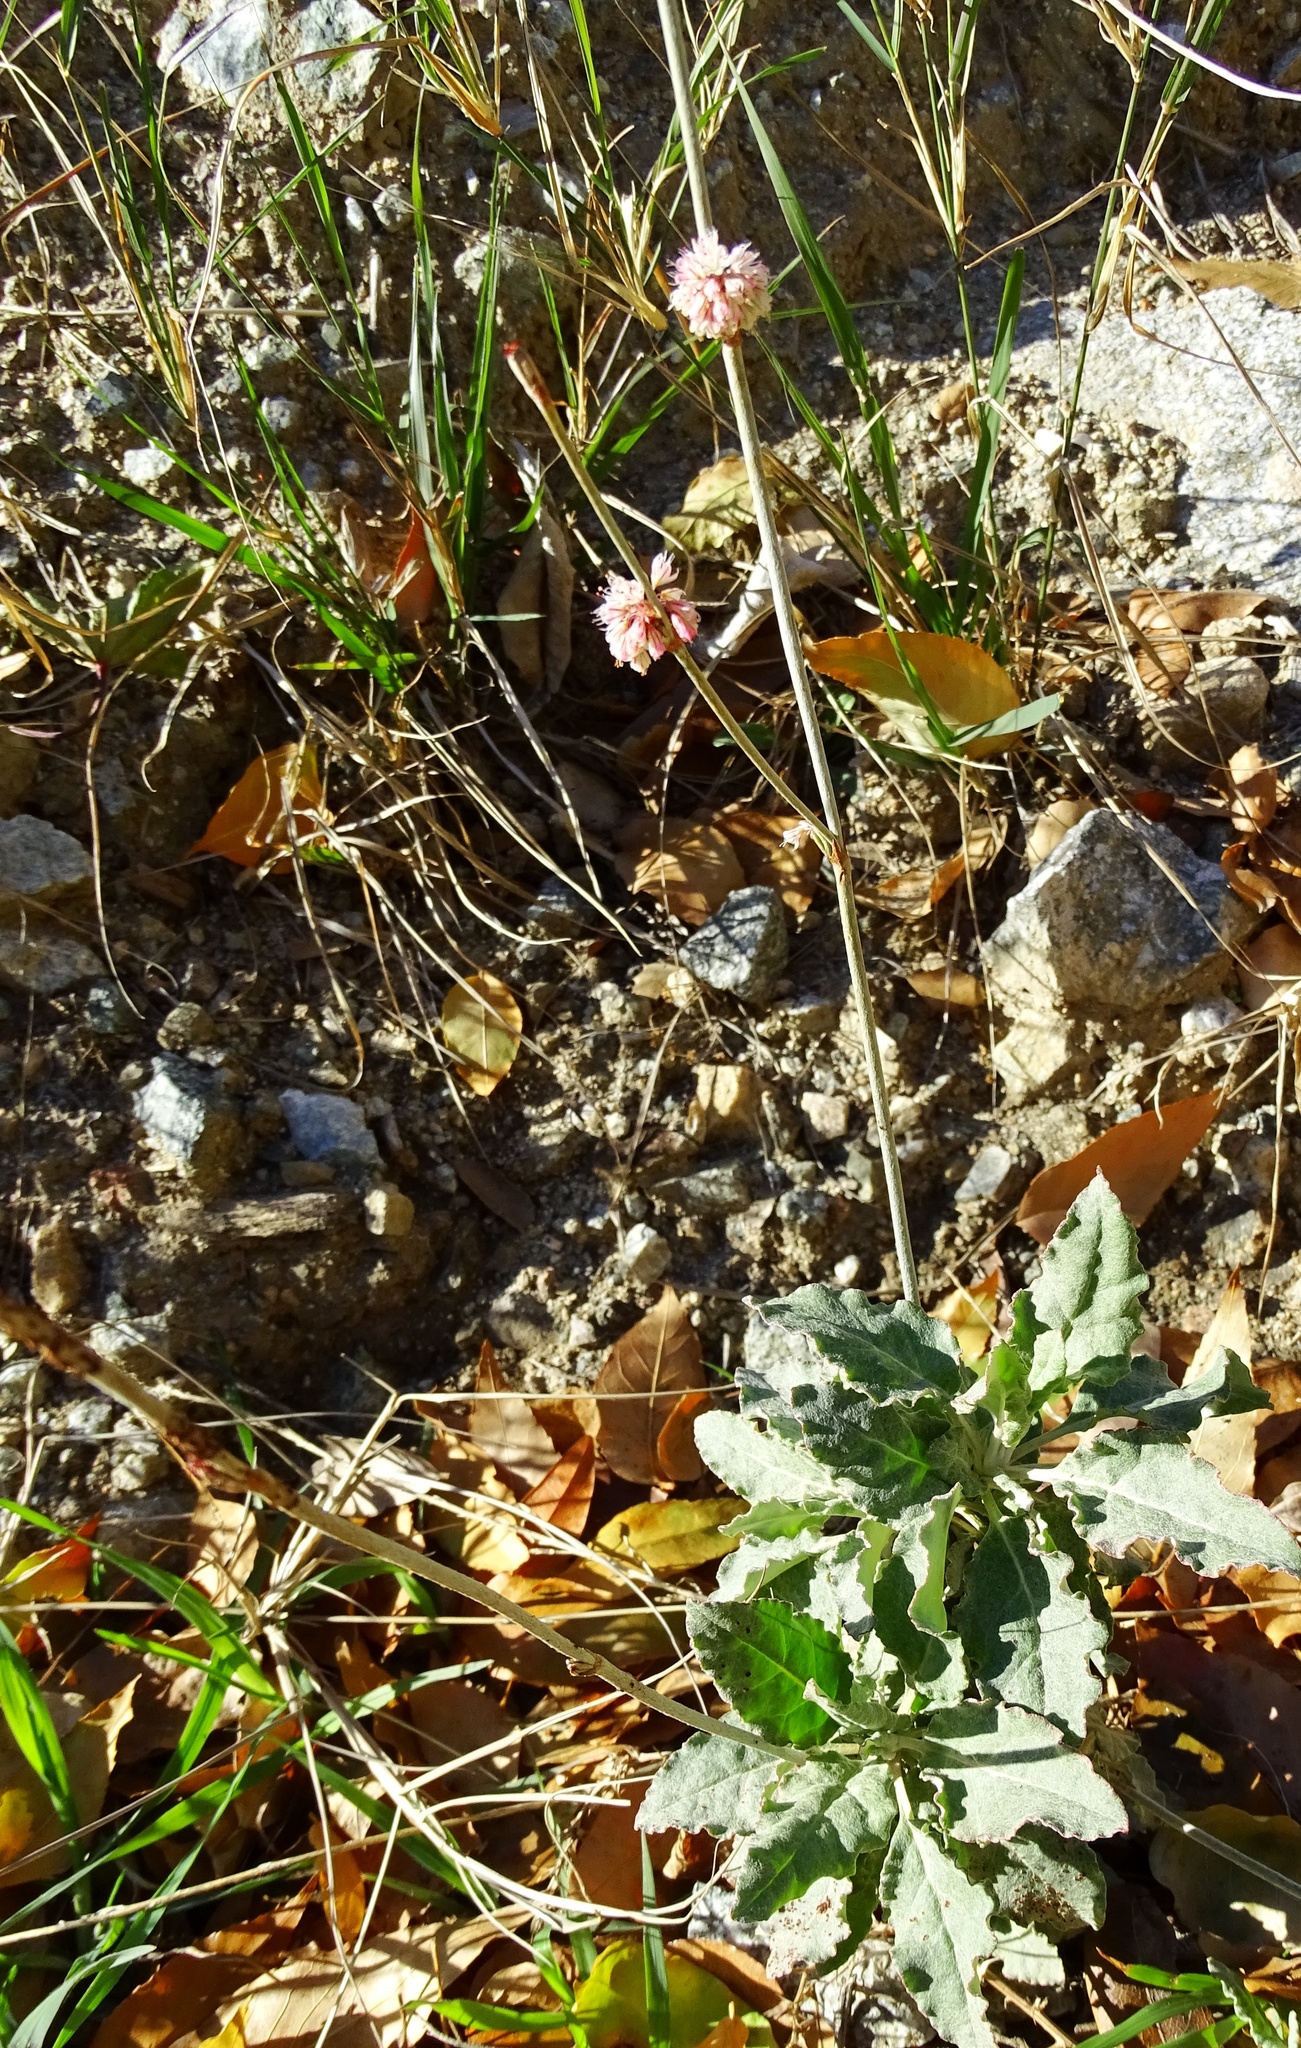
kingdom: Plantae
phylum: Tracheophyta
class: Magnoliopsida
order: Caryophyllales
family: Polygonaceae
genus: Eriogonum
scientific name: Eriogonum elongatum
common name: Long-stem wild buckwheat
